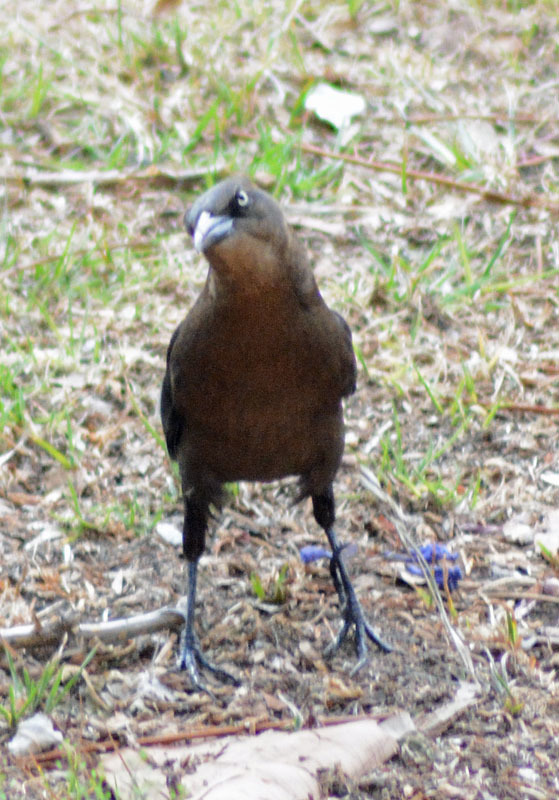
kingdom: Animalia
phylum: Chordata
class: Aves
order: Passeriformes
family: Icteridae
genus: Quiscalus
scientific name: Quiscalus mexicanus
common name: Great-tailed grackle
